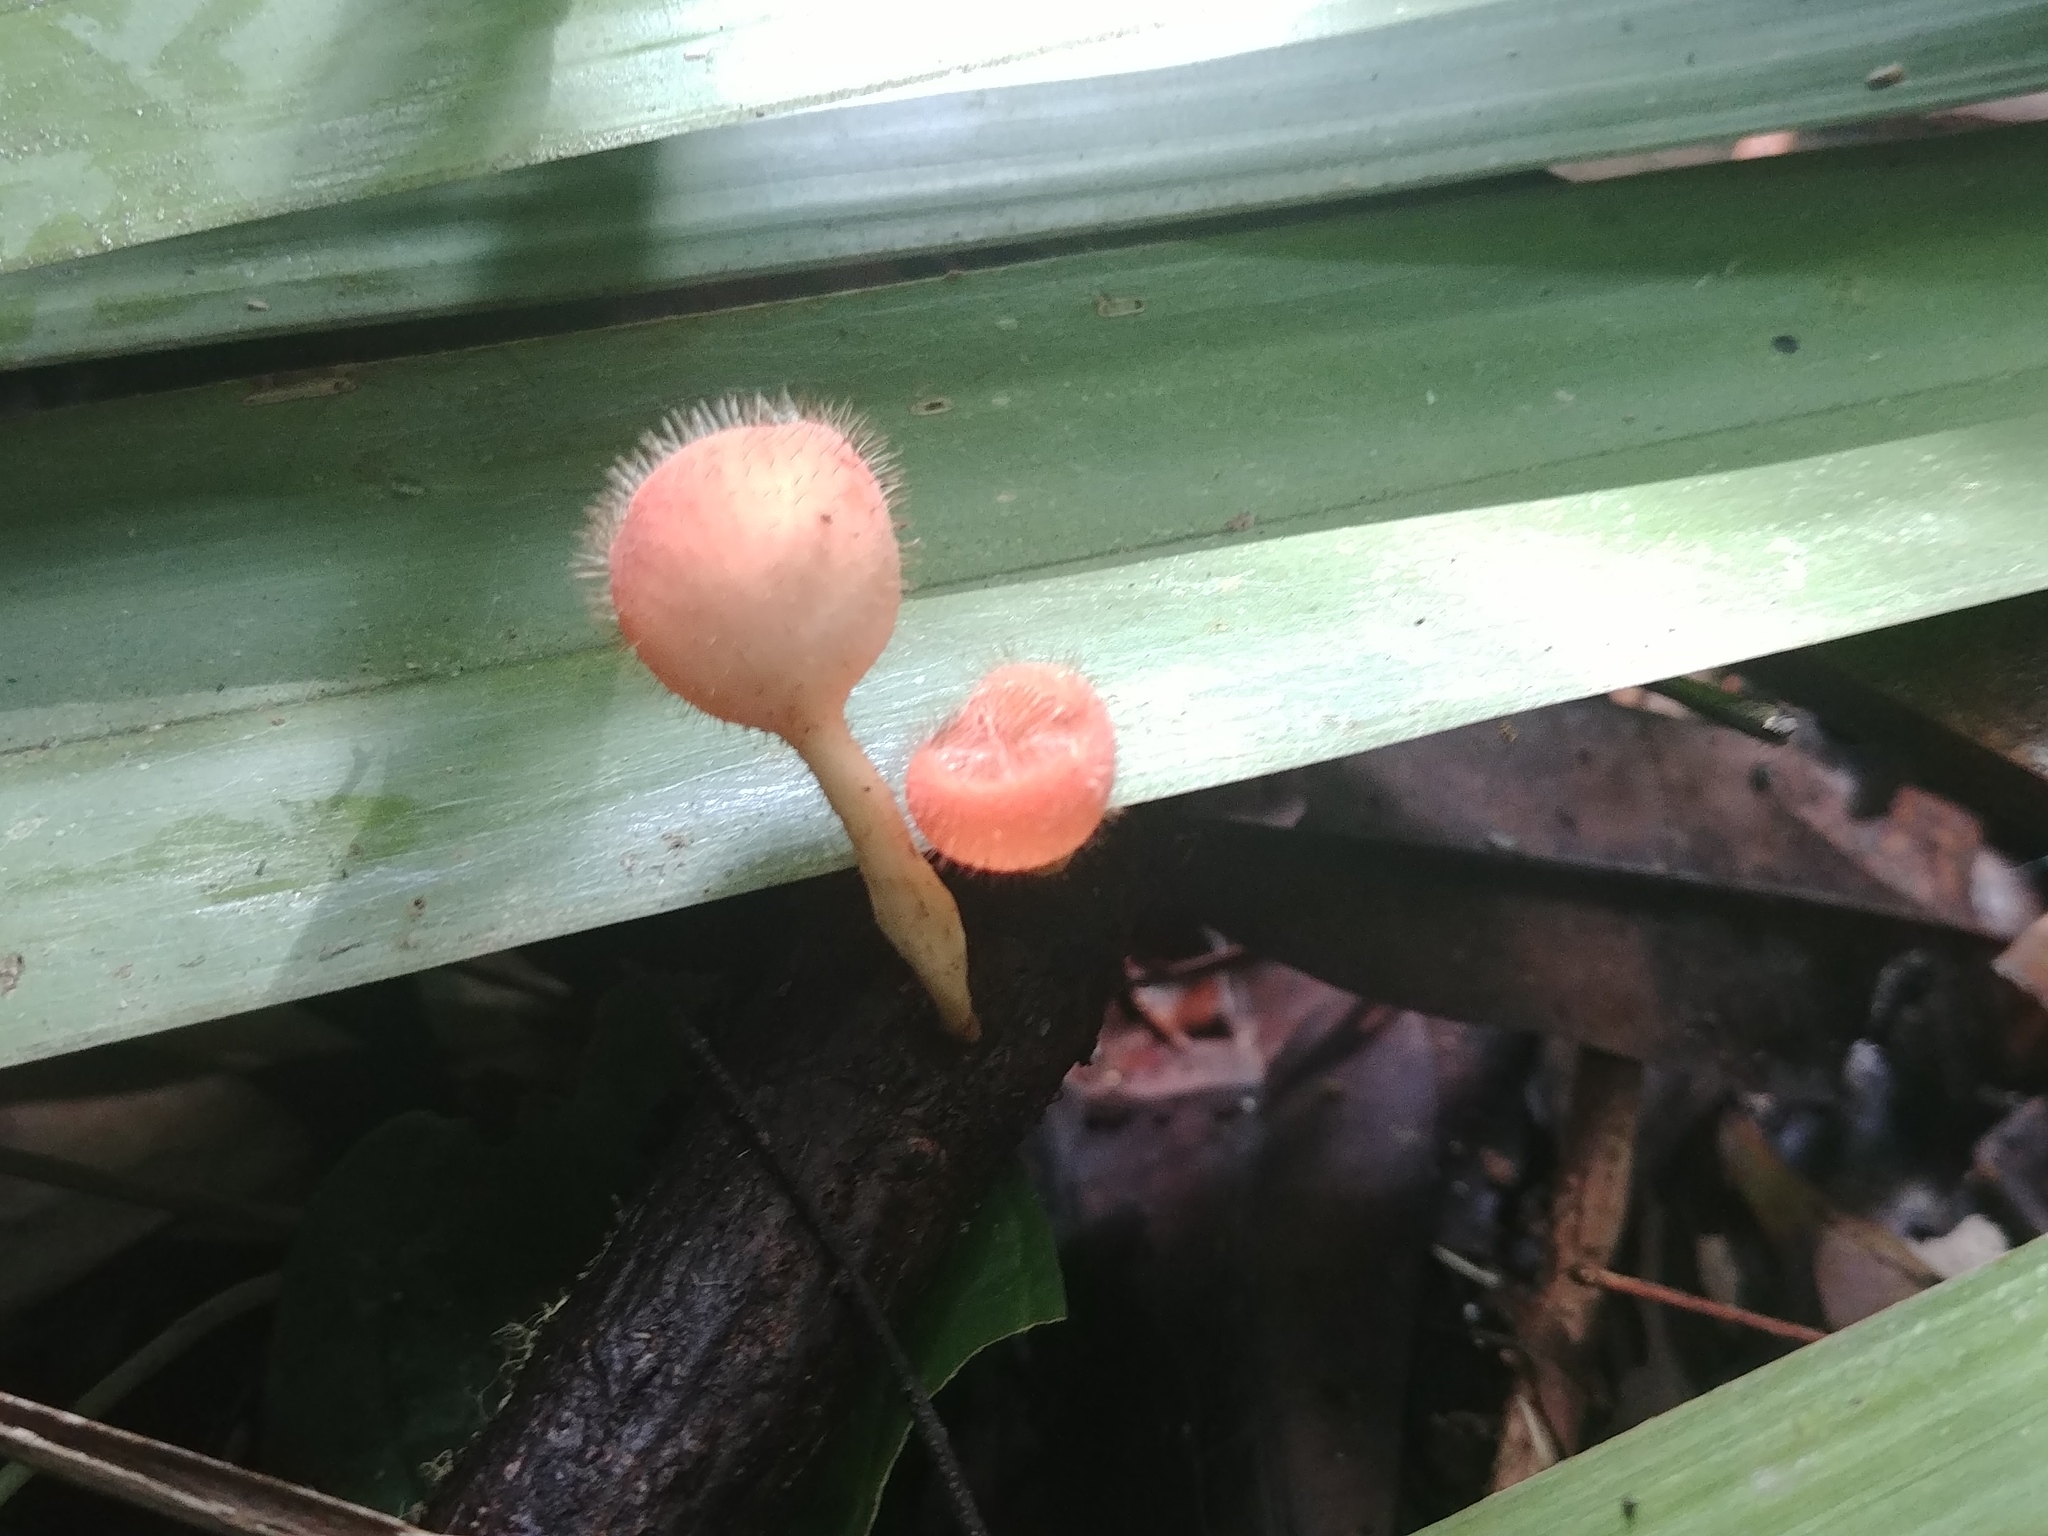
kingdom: Fungi
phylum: Ascomycota
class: Pezizomycetes
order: Pezizales
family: Sarcoscyphaceae
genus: Cookeina
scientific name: Cookeina tricholoma
